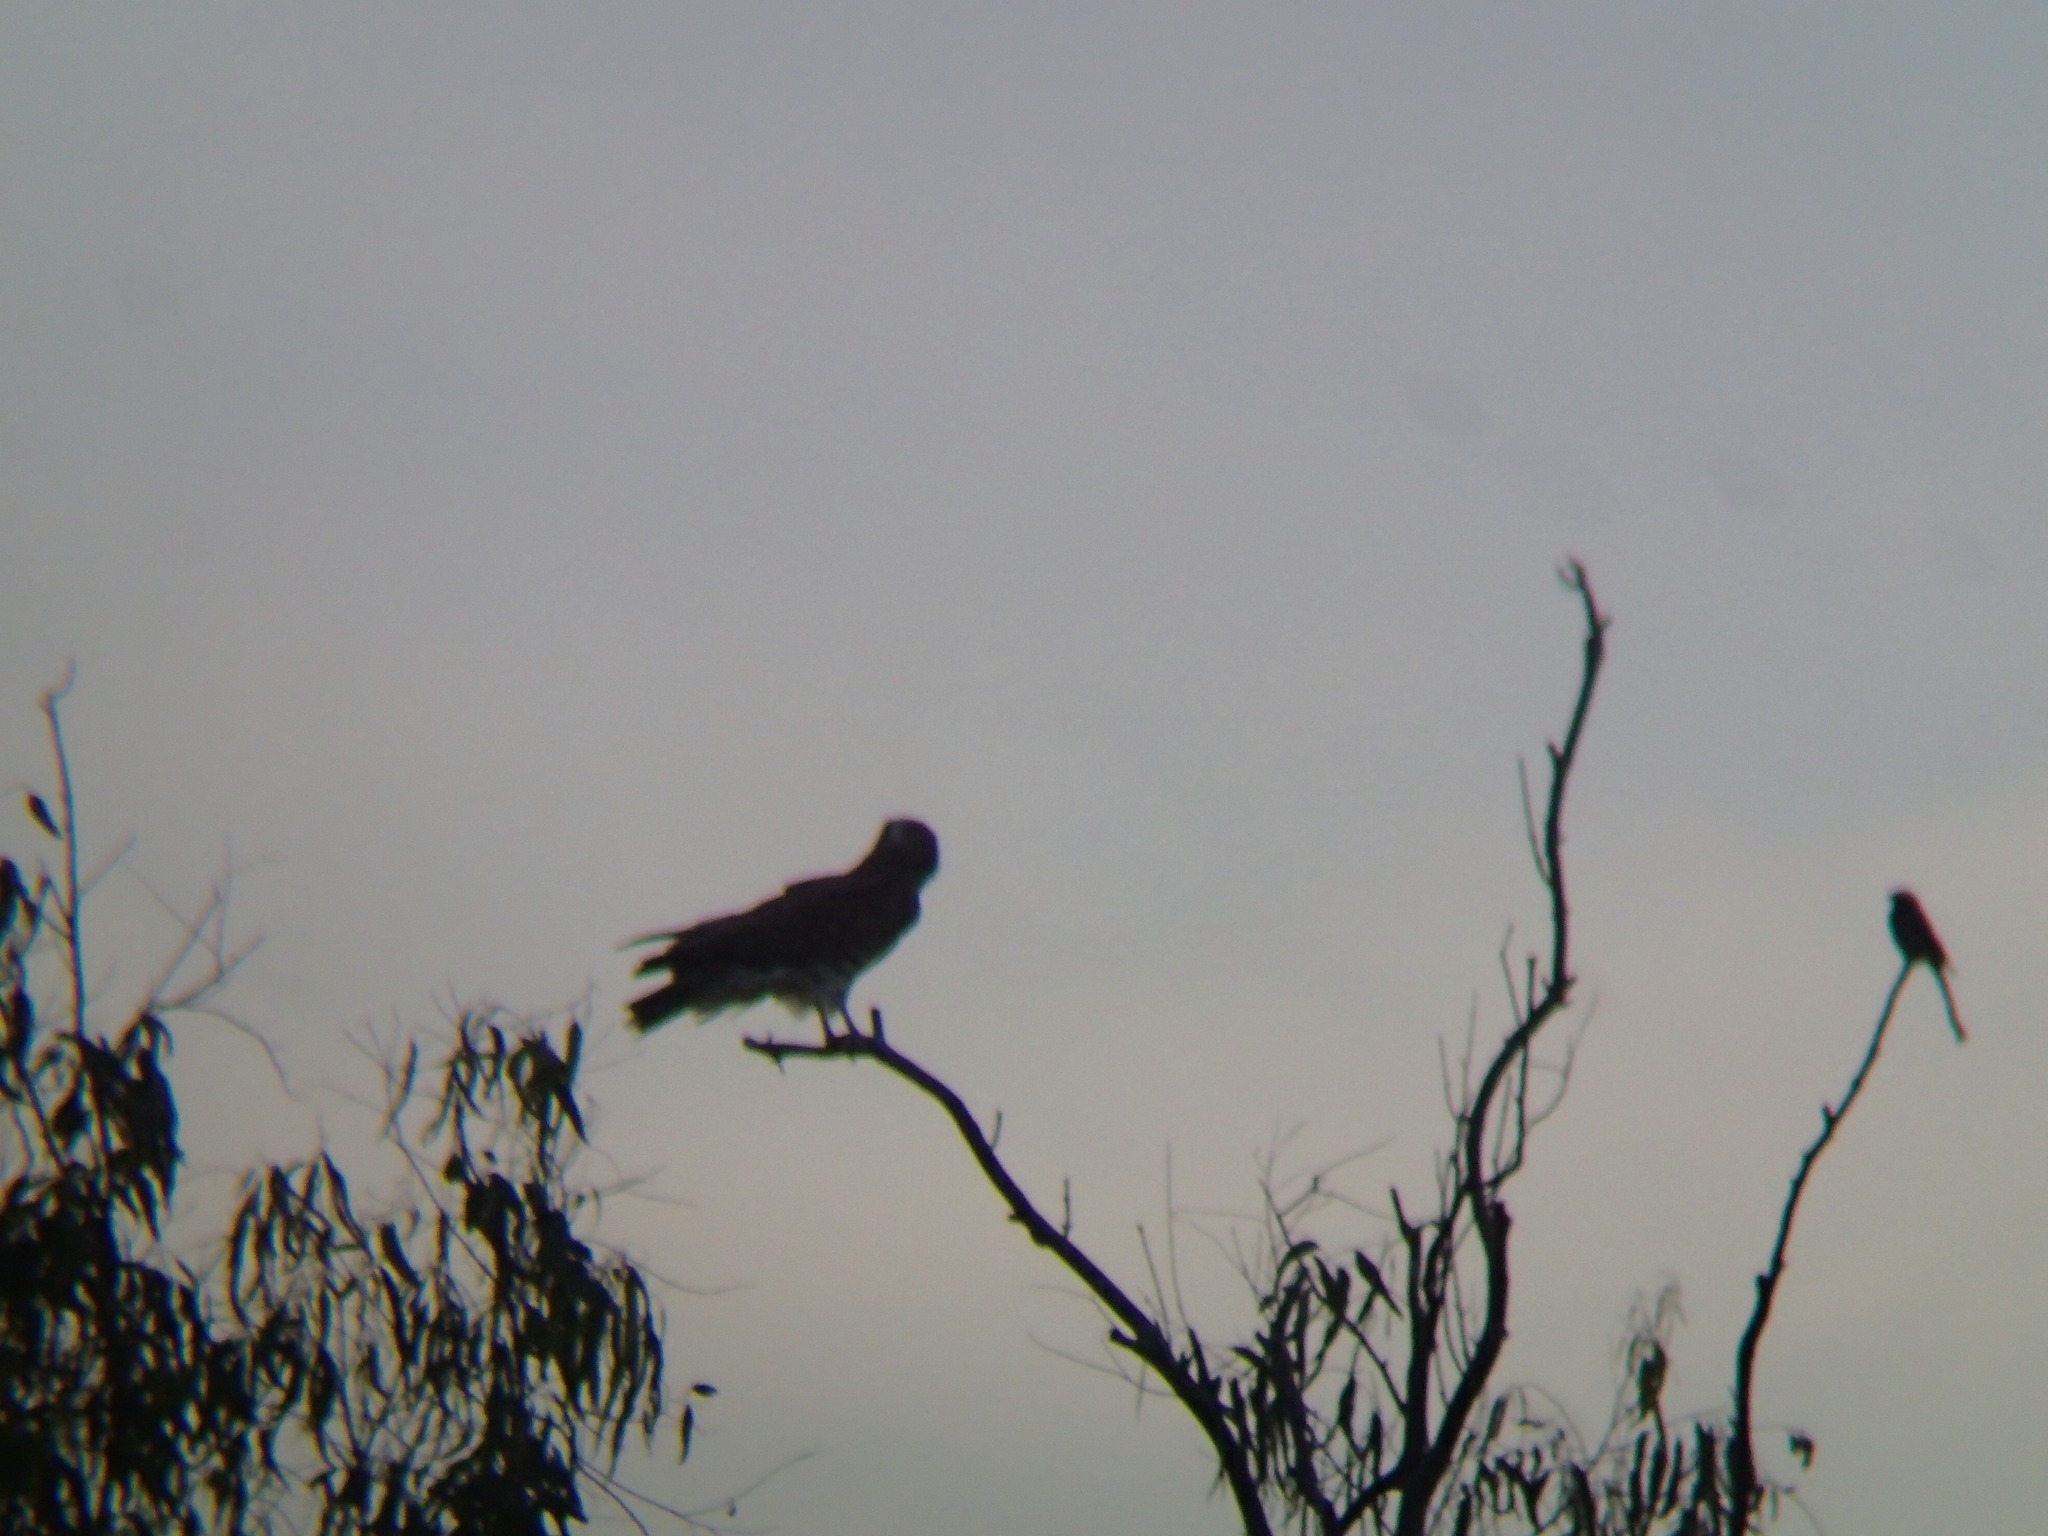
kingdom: Animalia
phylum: Chordata
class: Aves
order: Accipitriformes
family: Accipitridae
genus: Circaetus
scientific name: Circaetus gallicus
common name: Short-toed snake eagle
